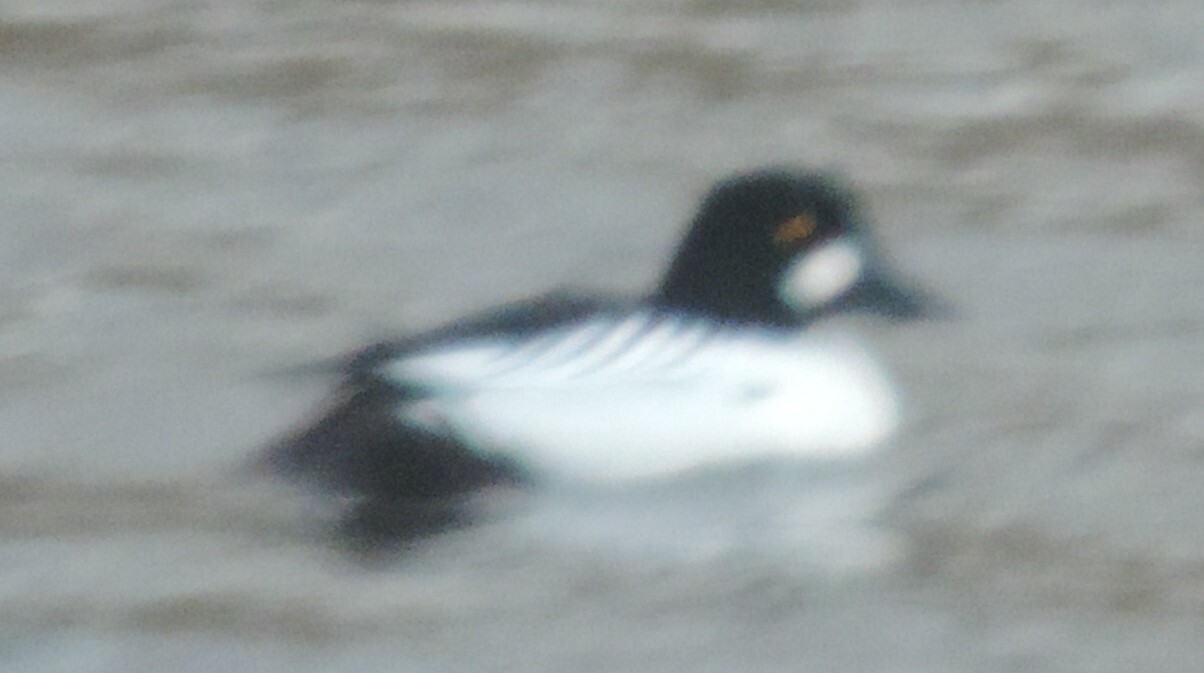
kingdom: Animalia
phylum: Chordata
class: Aves
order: Anseriformes
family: Anatidae
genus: Bucephala
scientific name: Bucephala clangula
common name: Common goldeneye
